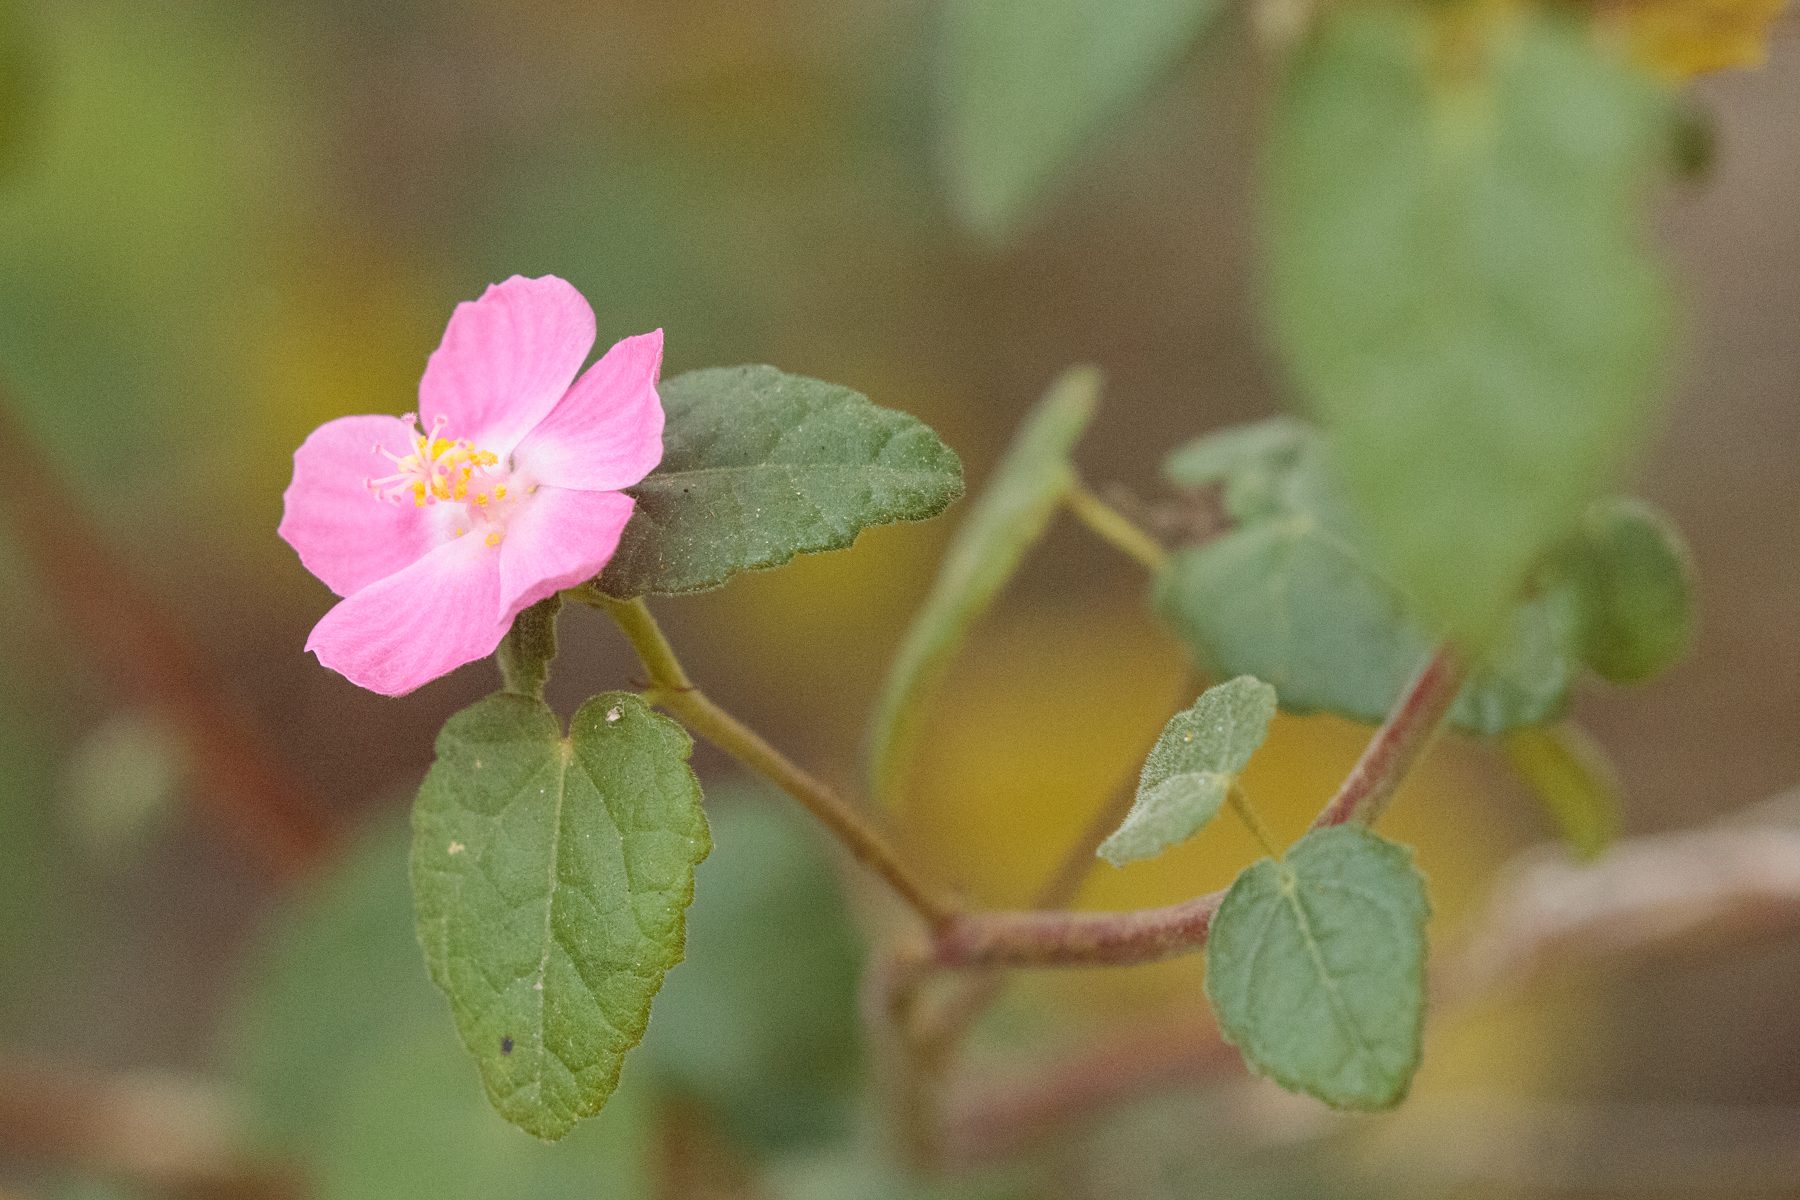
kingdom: Plantae
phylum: Tracheophyta
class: Magnoliopsida
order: Malvales
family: Malvaceae
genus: Pavonia
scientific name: Pavonia lasiopetala
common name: Texas swamp-mallow
